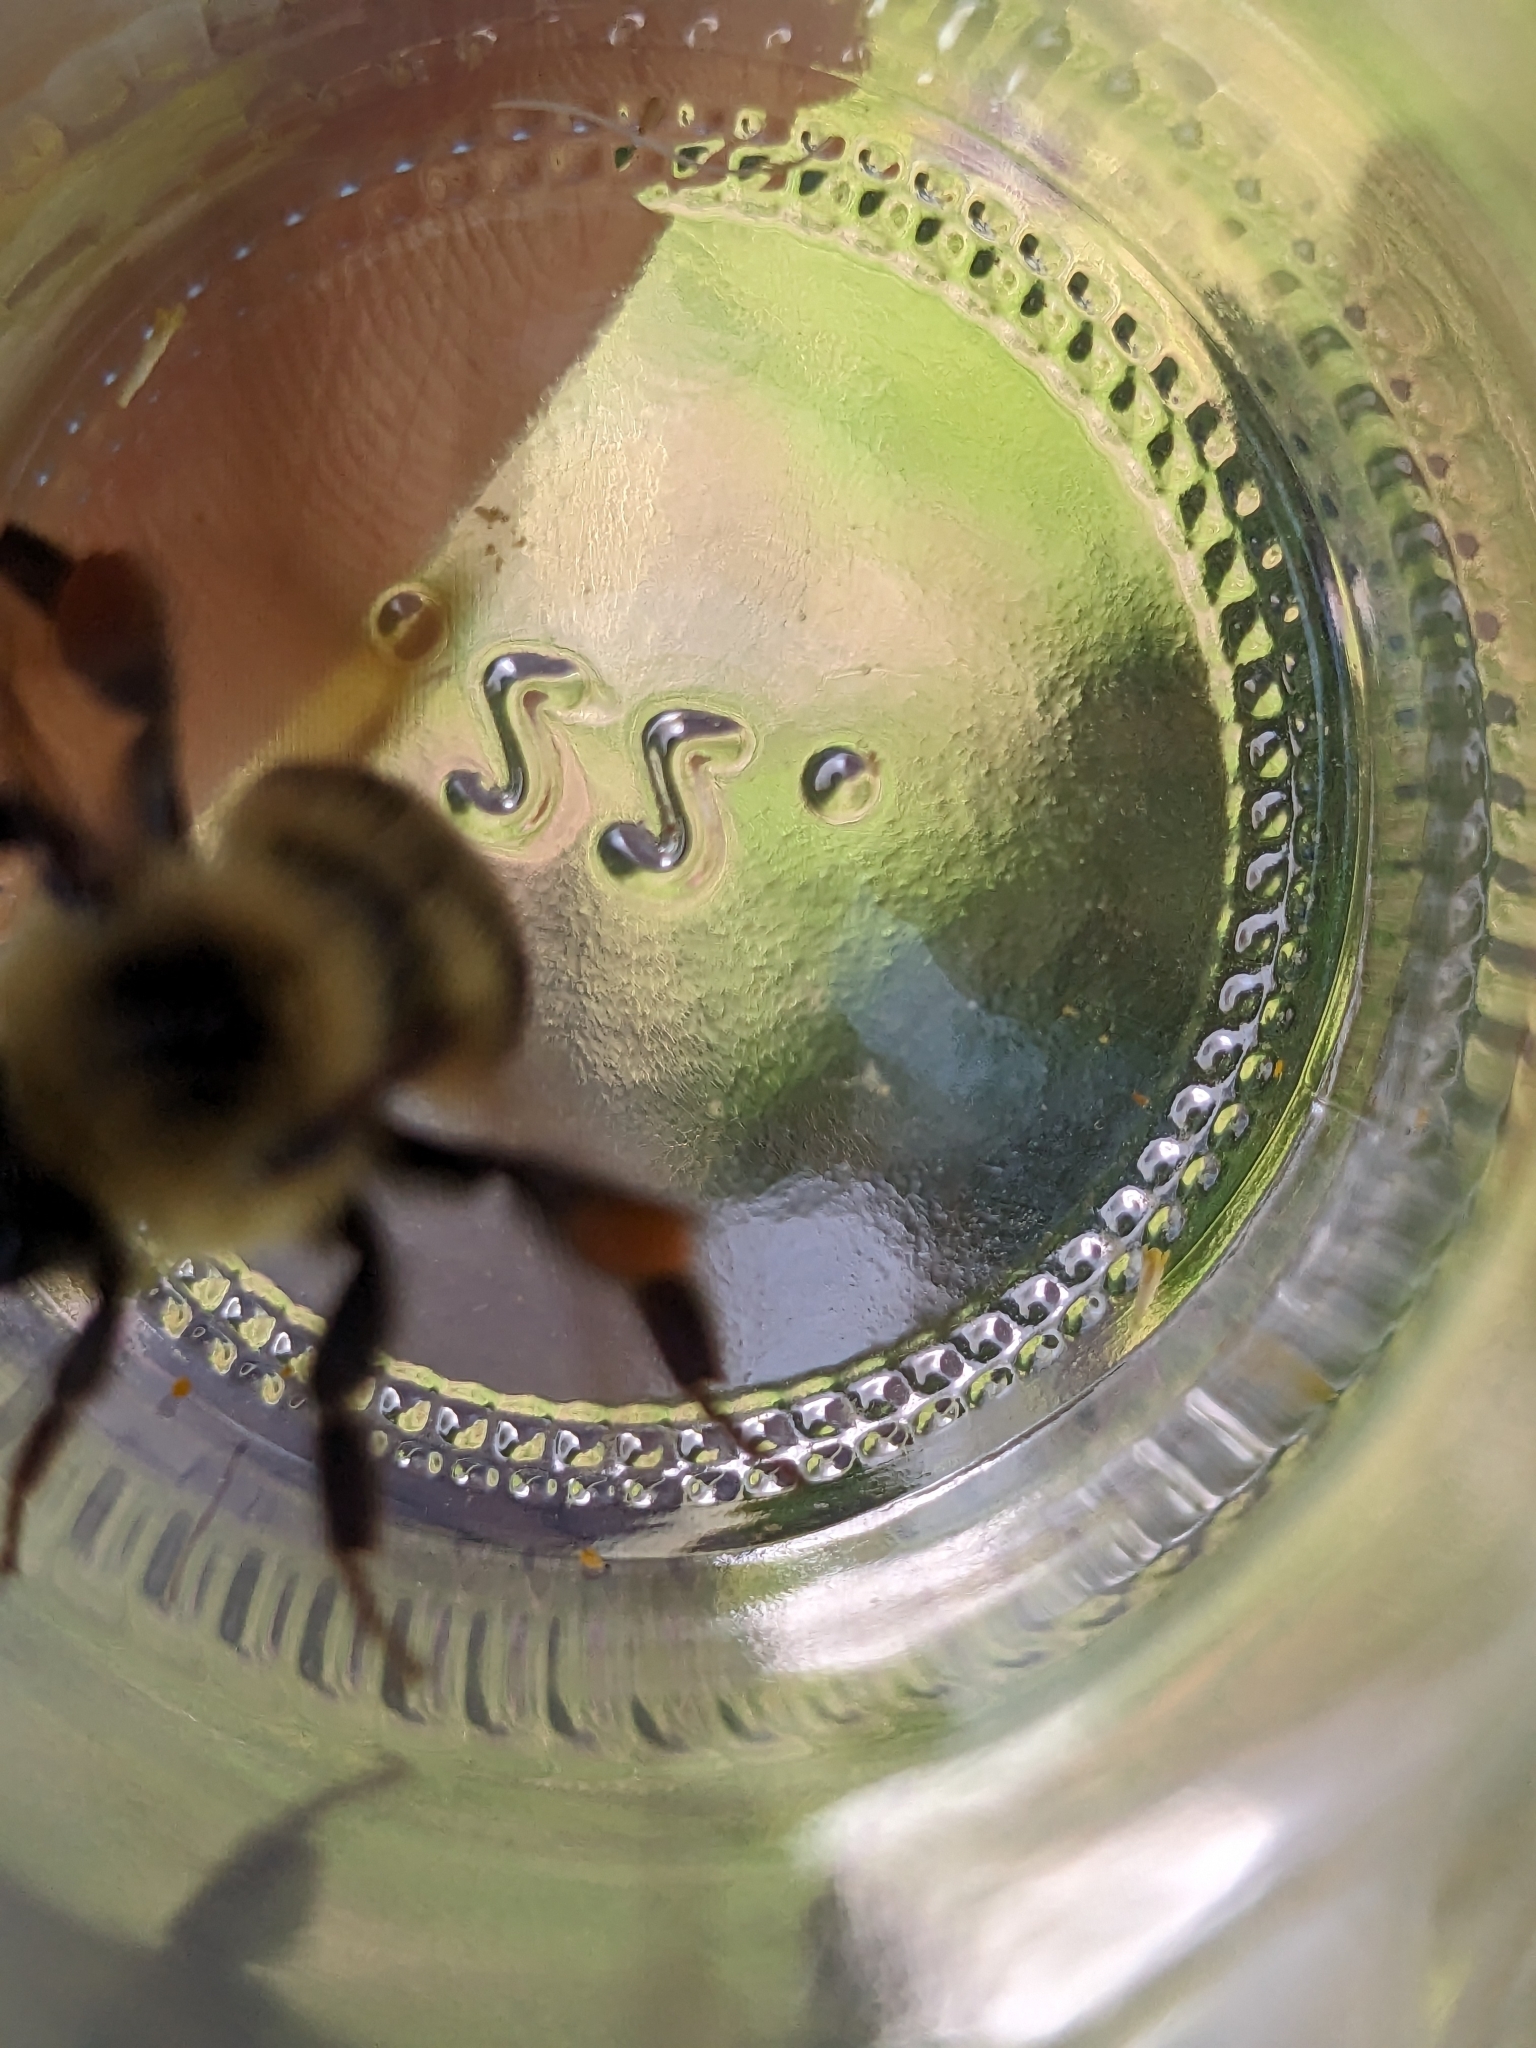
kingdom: Animalia
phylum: Arthropoda
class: Insecta
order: Hymenoptera
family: Apidae
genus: Bombus
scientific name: Bombus bimaculatus
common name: Two-spotted bumble bee
